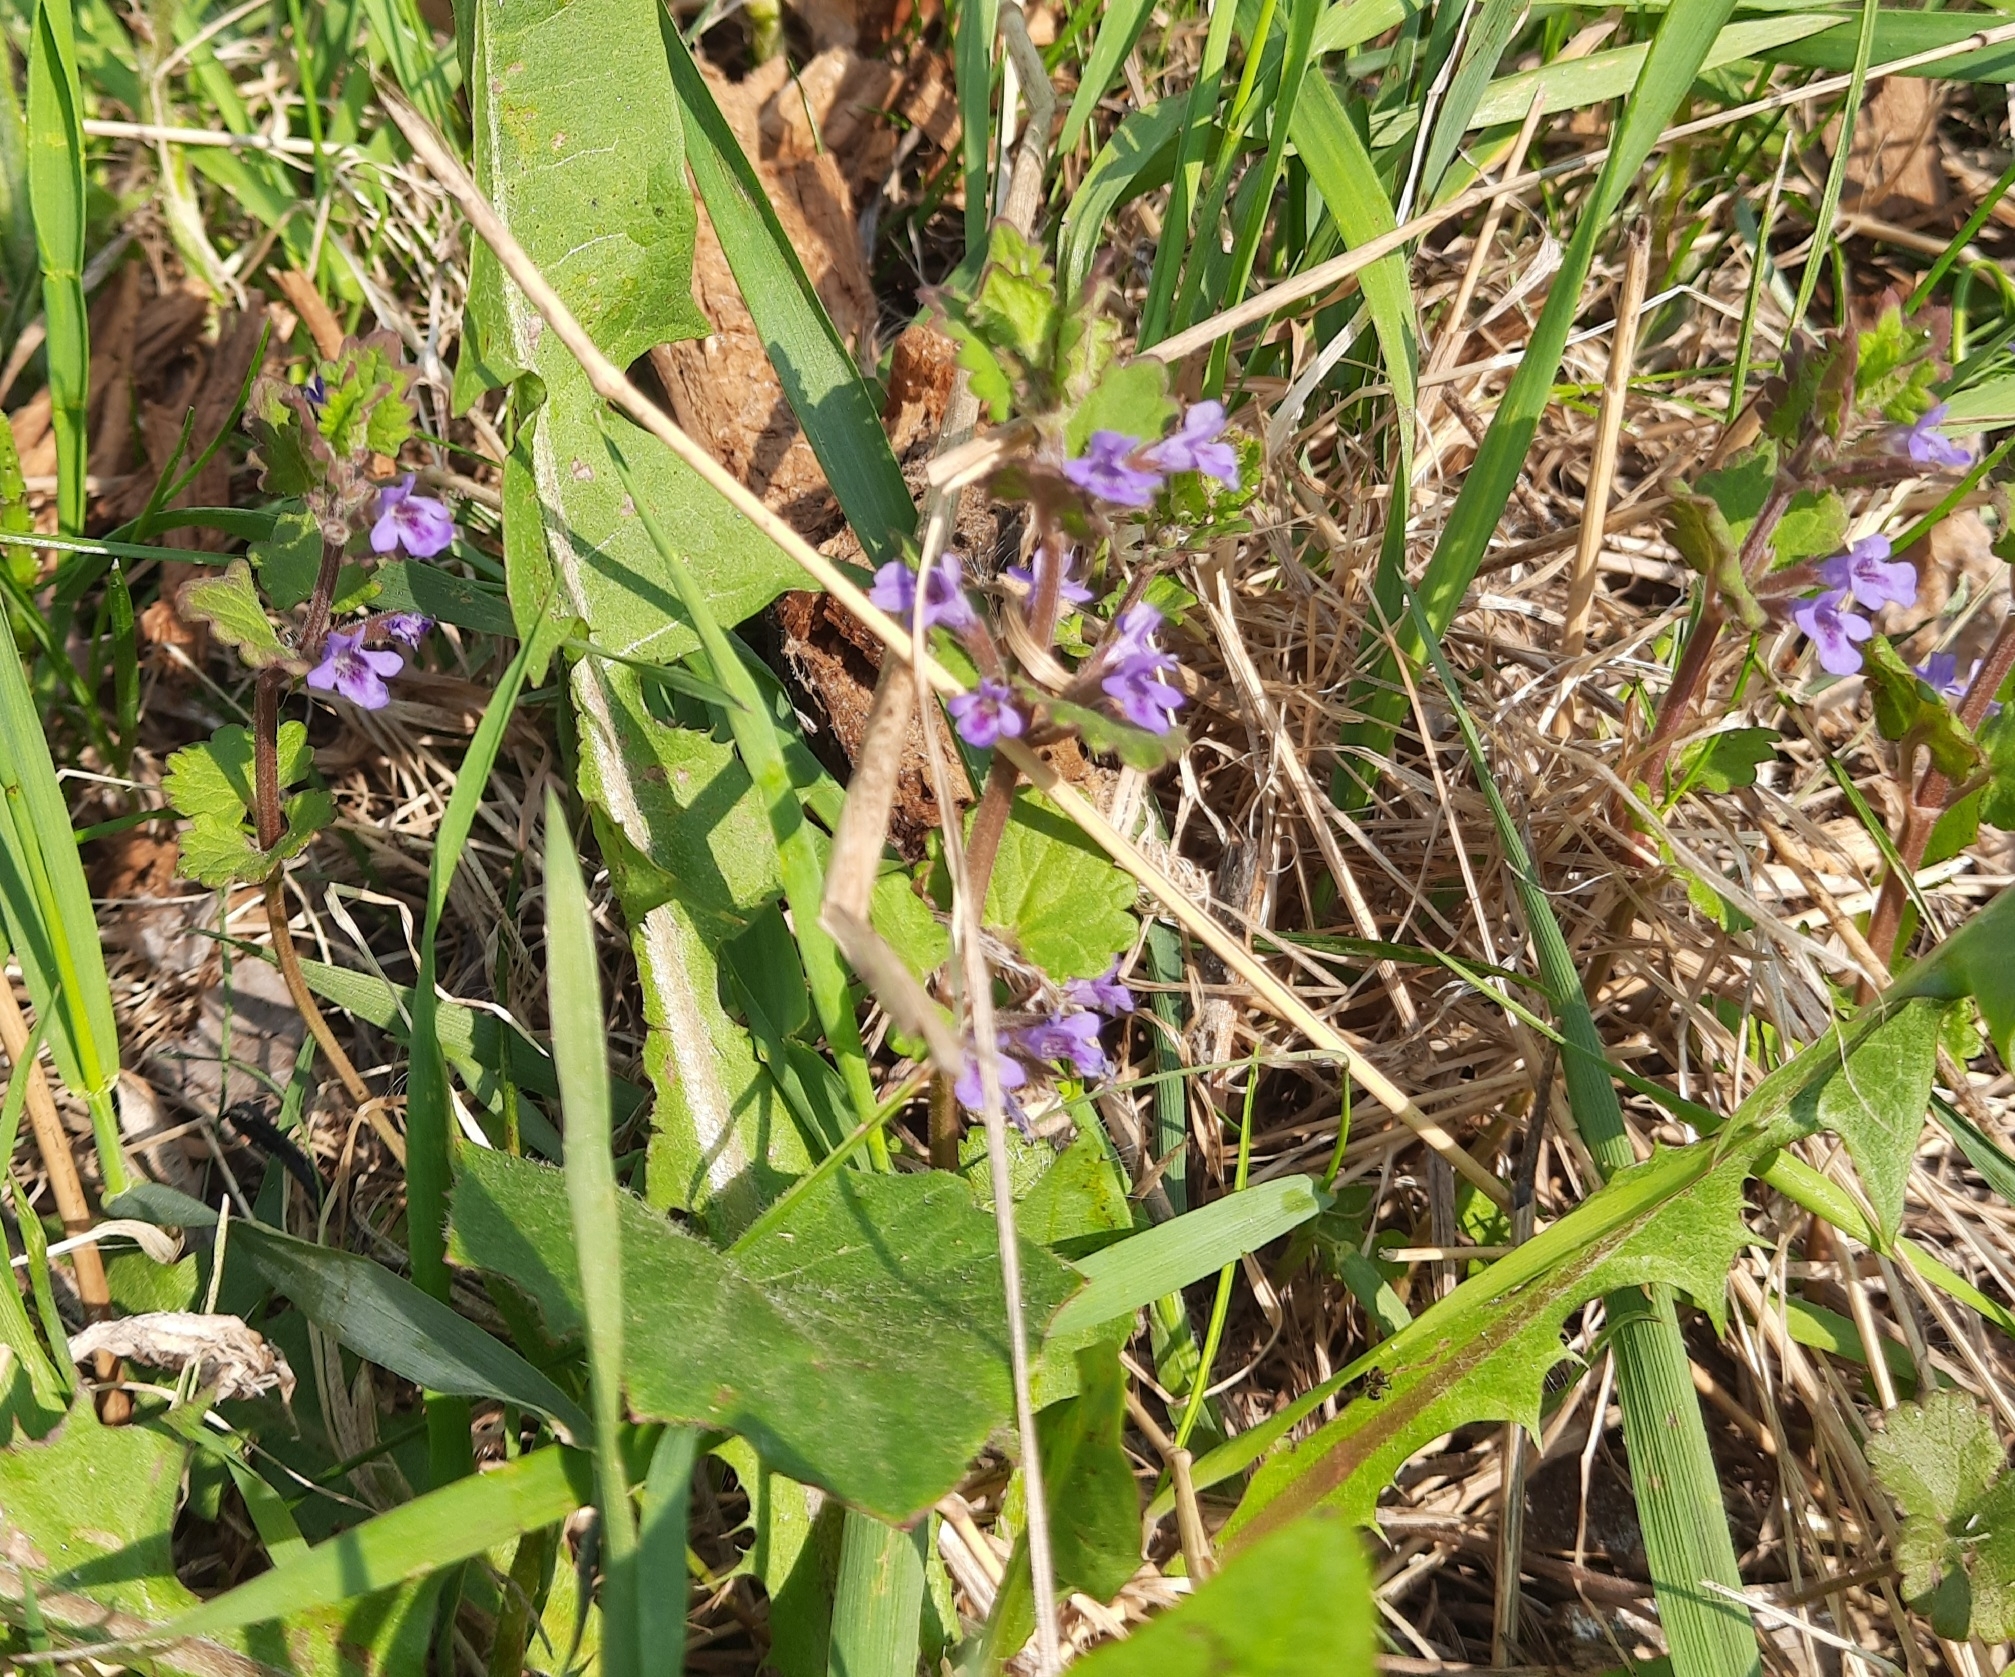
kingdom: Plantae
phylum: Tracheophyta
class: Magnoliopsida
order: Lamiales
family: Lamiaceae
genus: Glechoma
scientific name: Glechoma hederacea
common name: Ground ivy
